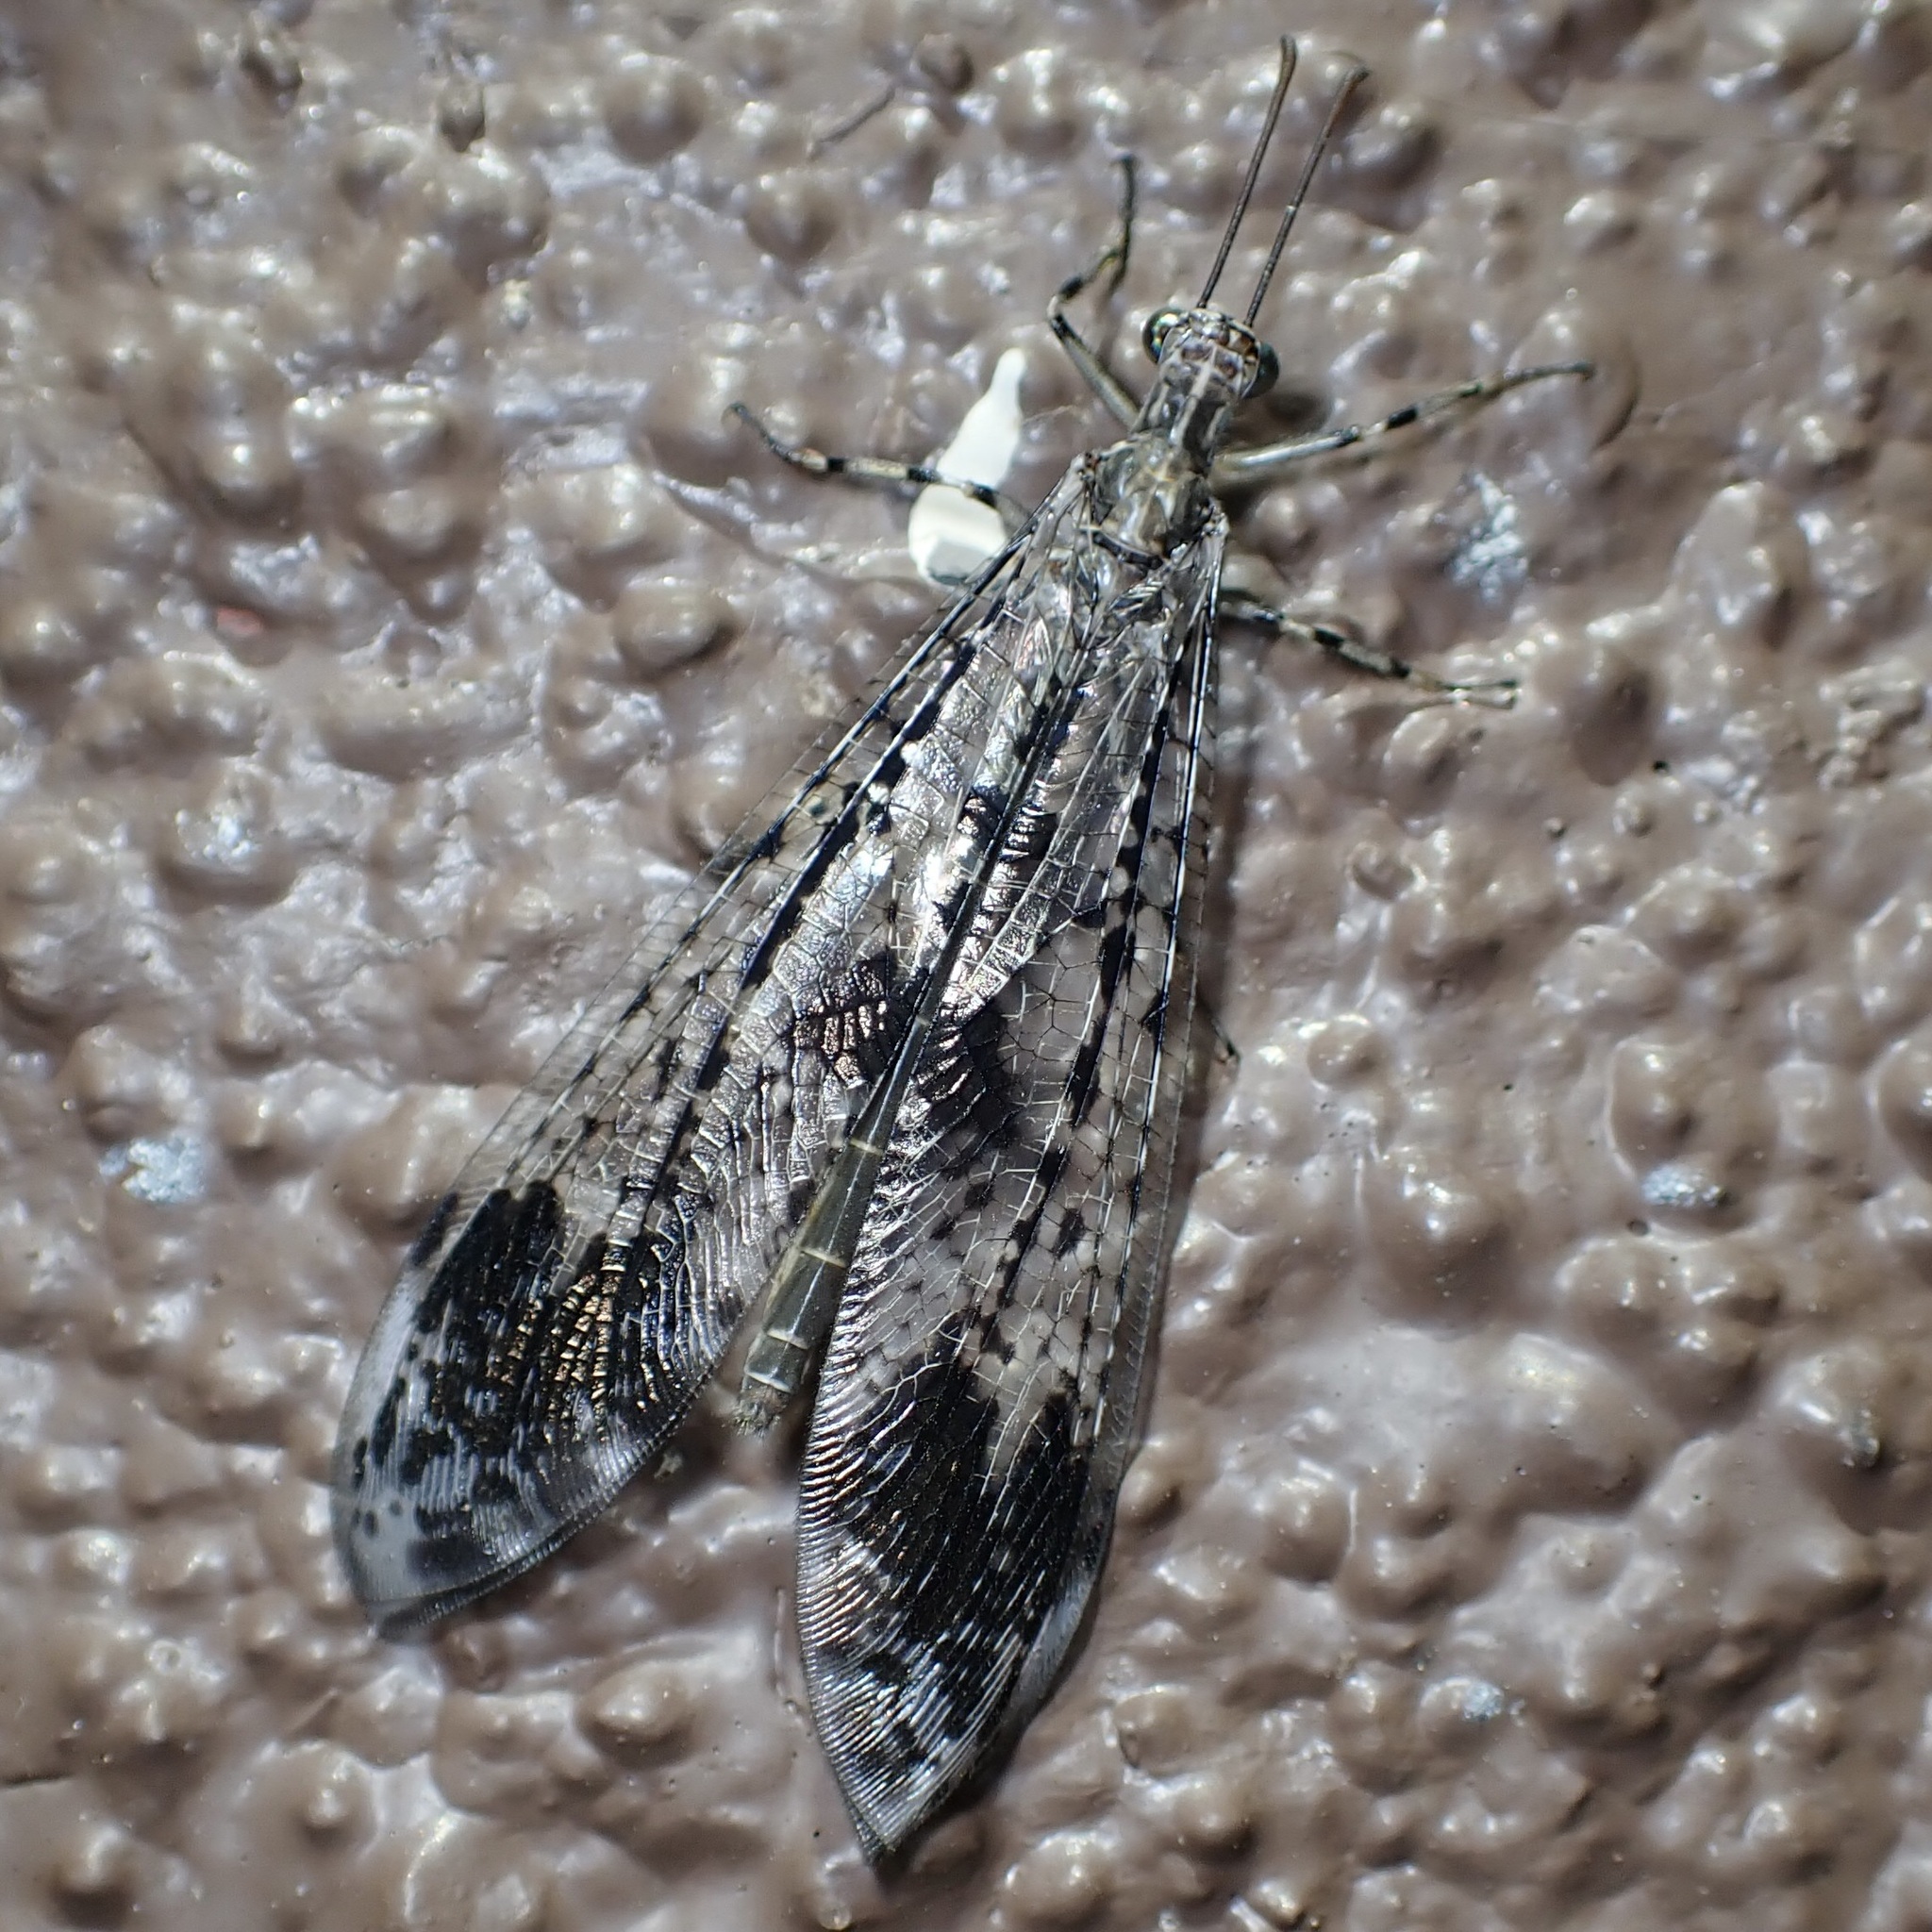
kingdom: Animalia
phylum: Arthropoda
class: Insecta
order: Neuroptera
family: Myrmeleontidae
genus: Glenurus
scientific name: Glenurus snowii
